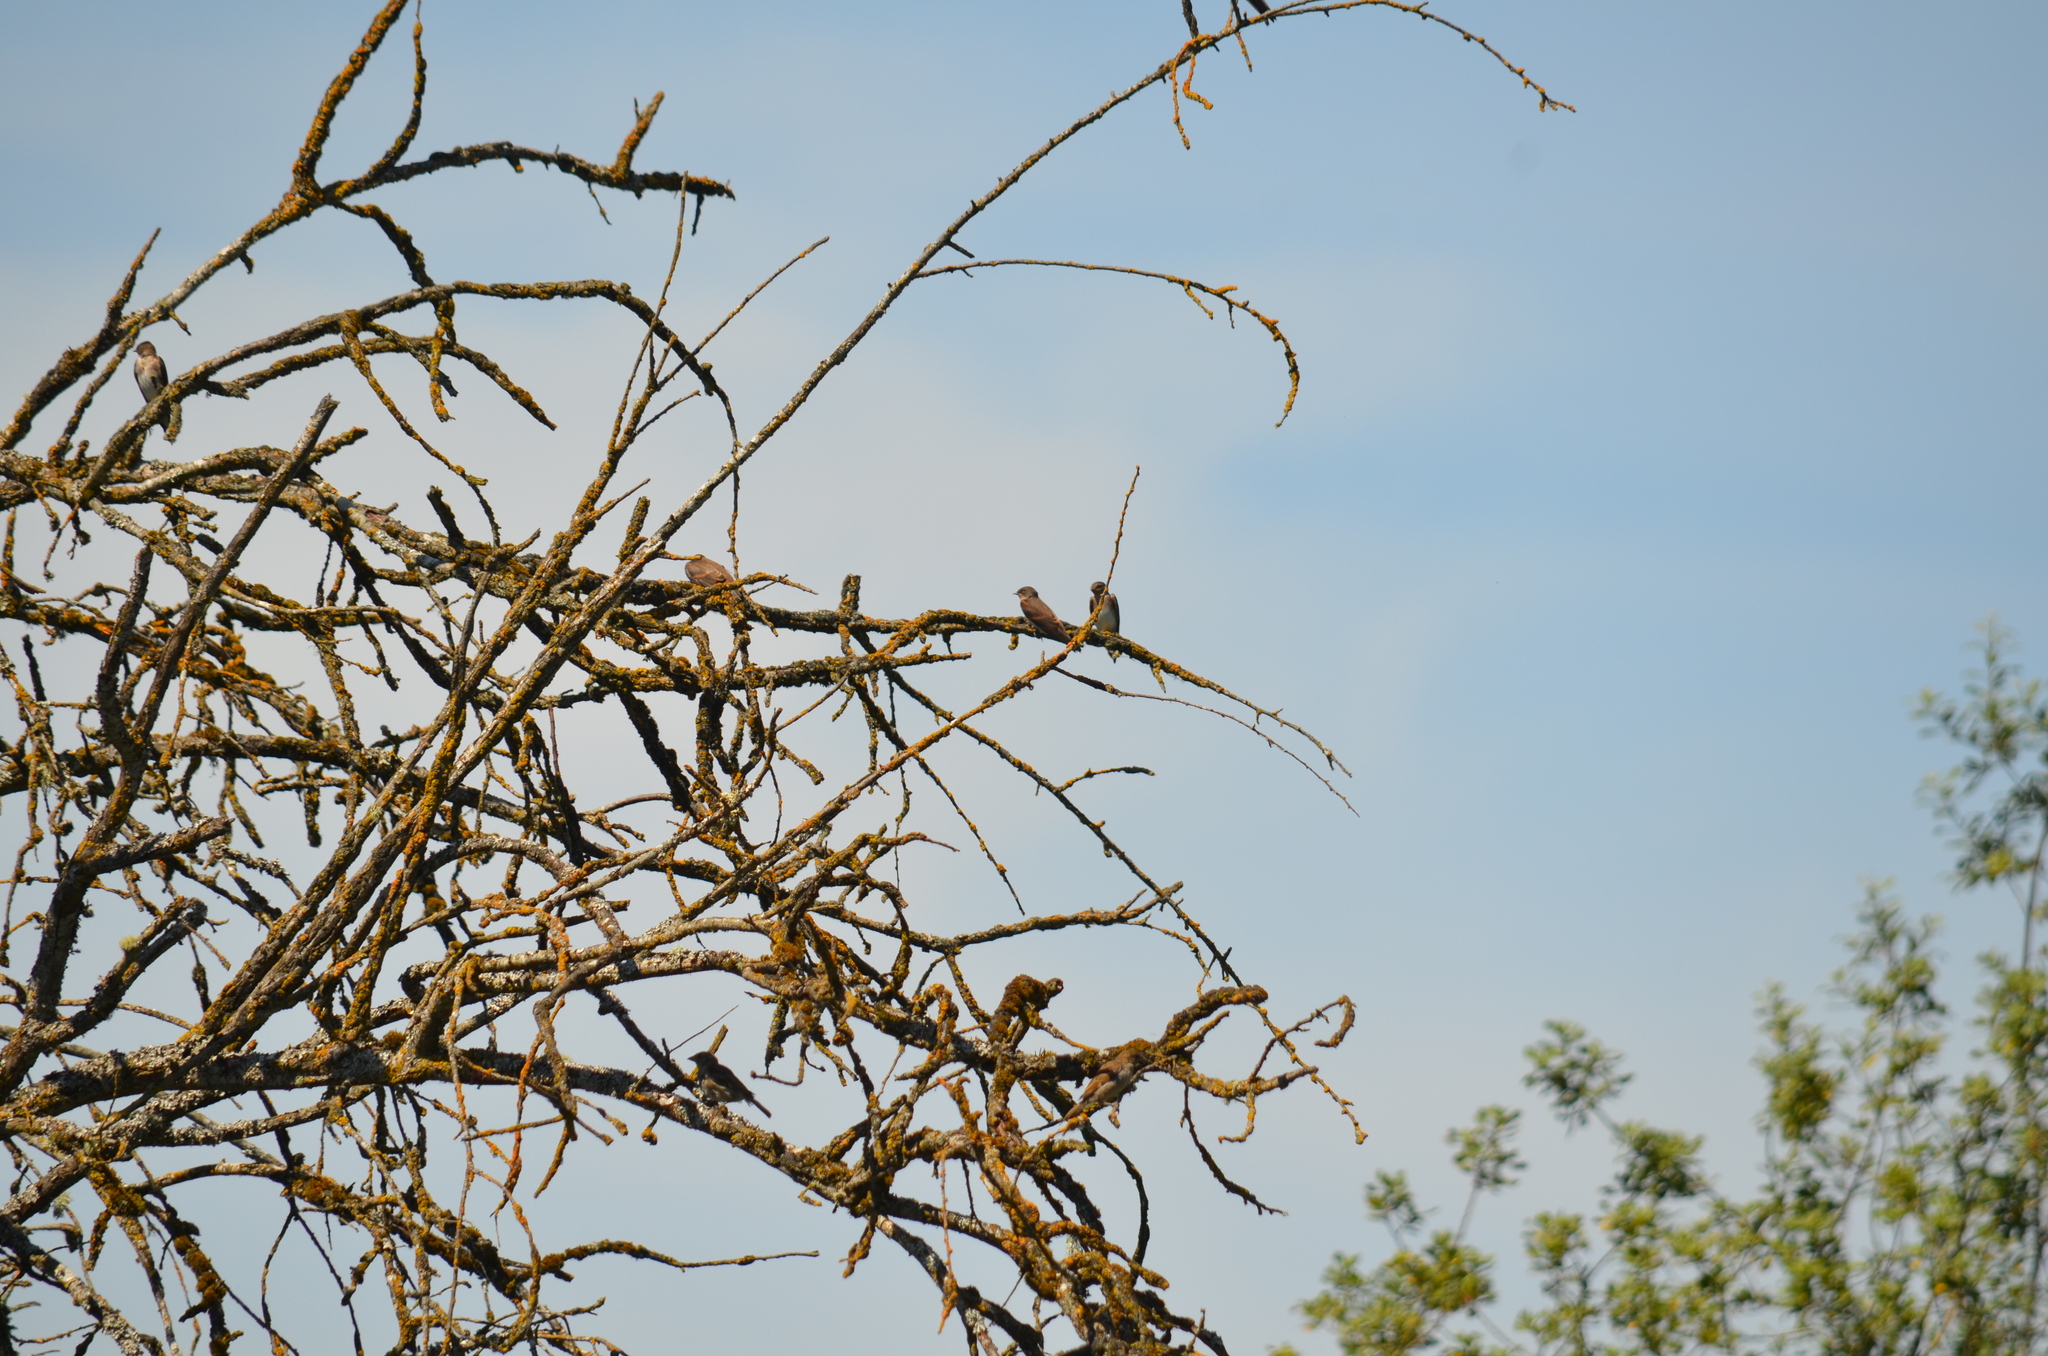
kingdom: Animalia
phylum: Chordata
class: Aves
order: Passeriformes
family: Hirundinidae
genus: Stelgidopteryx
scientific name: Stelgidopteryx serripennis
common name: Northern rough-winged swallow
